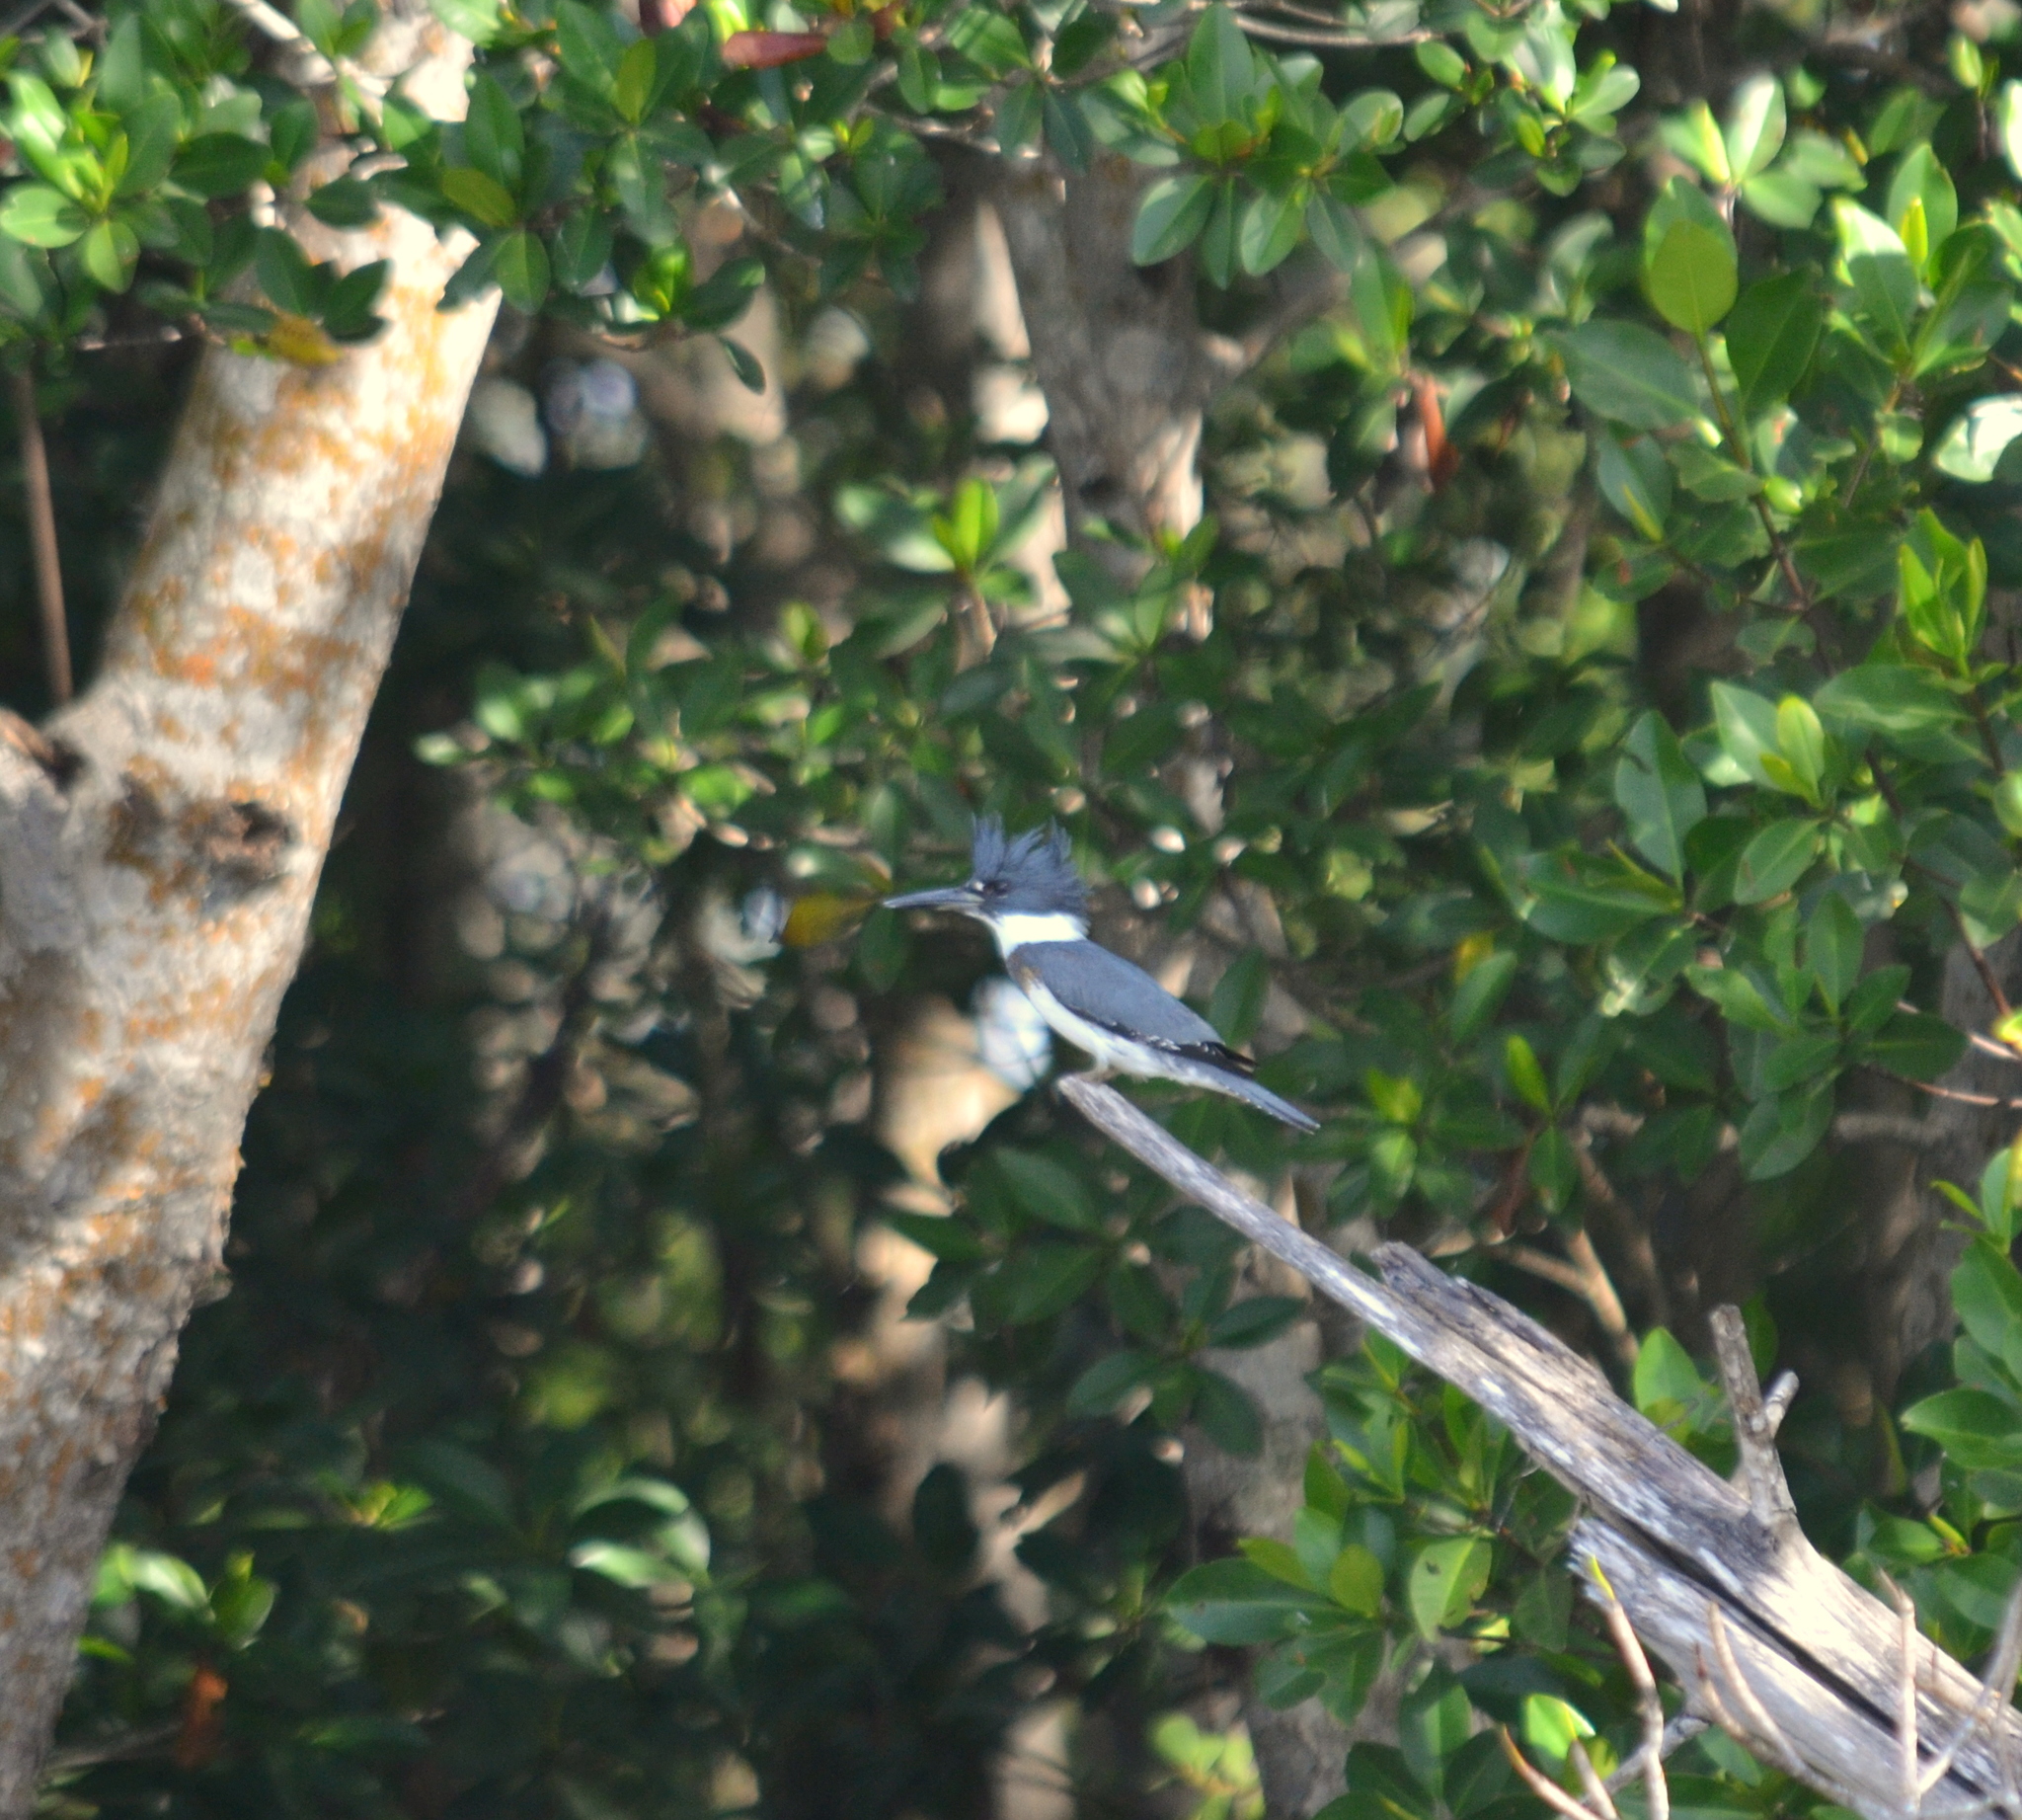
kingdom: Animalia
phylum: Chordata
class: Aves
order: Coraciiformes
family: Alcedinidae
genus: Megaceryle
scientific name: Megaceryle alcyon
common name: Belted kingfisher
